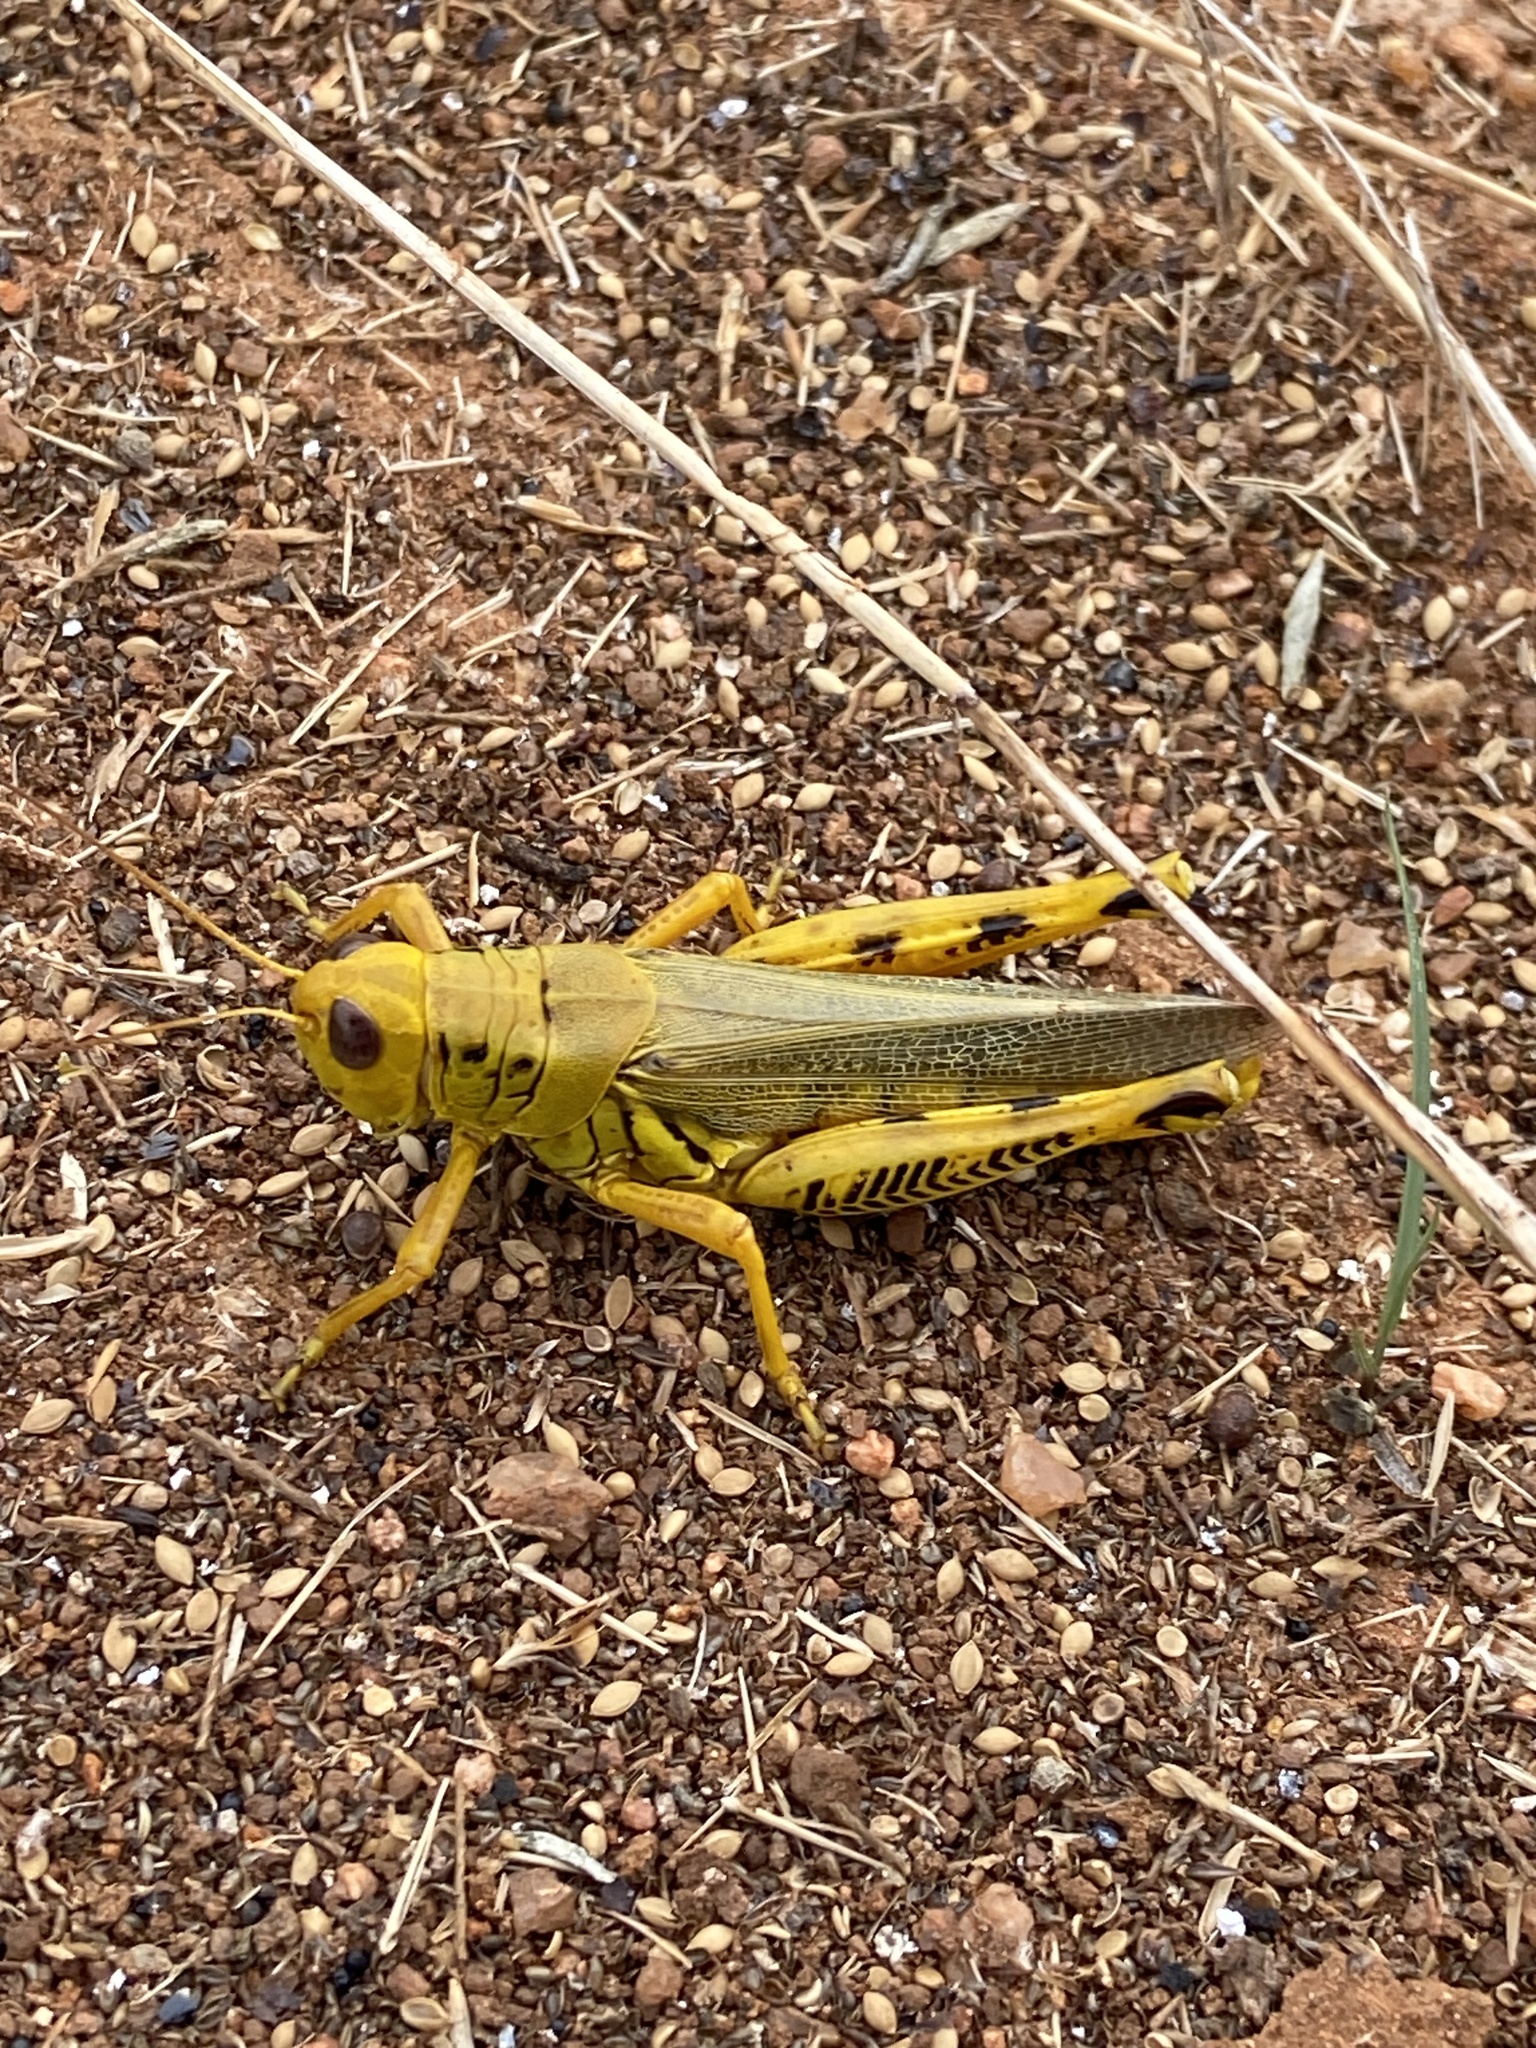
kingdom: Animalia
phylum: Arthropoda
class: Insecta
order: Orthoptera
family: Acrididae
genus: Melanoplus
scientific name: Melanoplus differentialis
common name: Differential grasshopper
